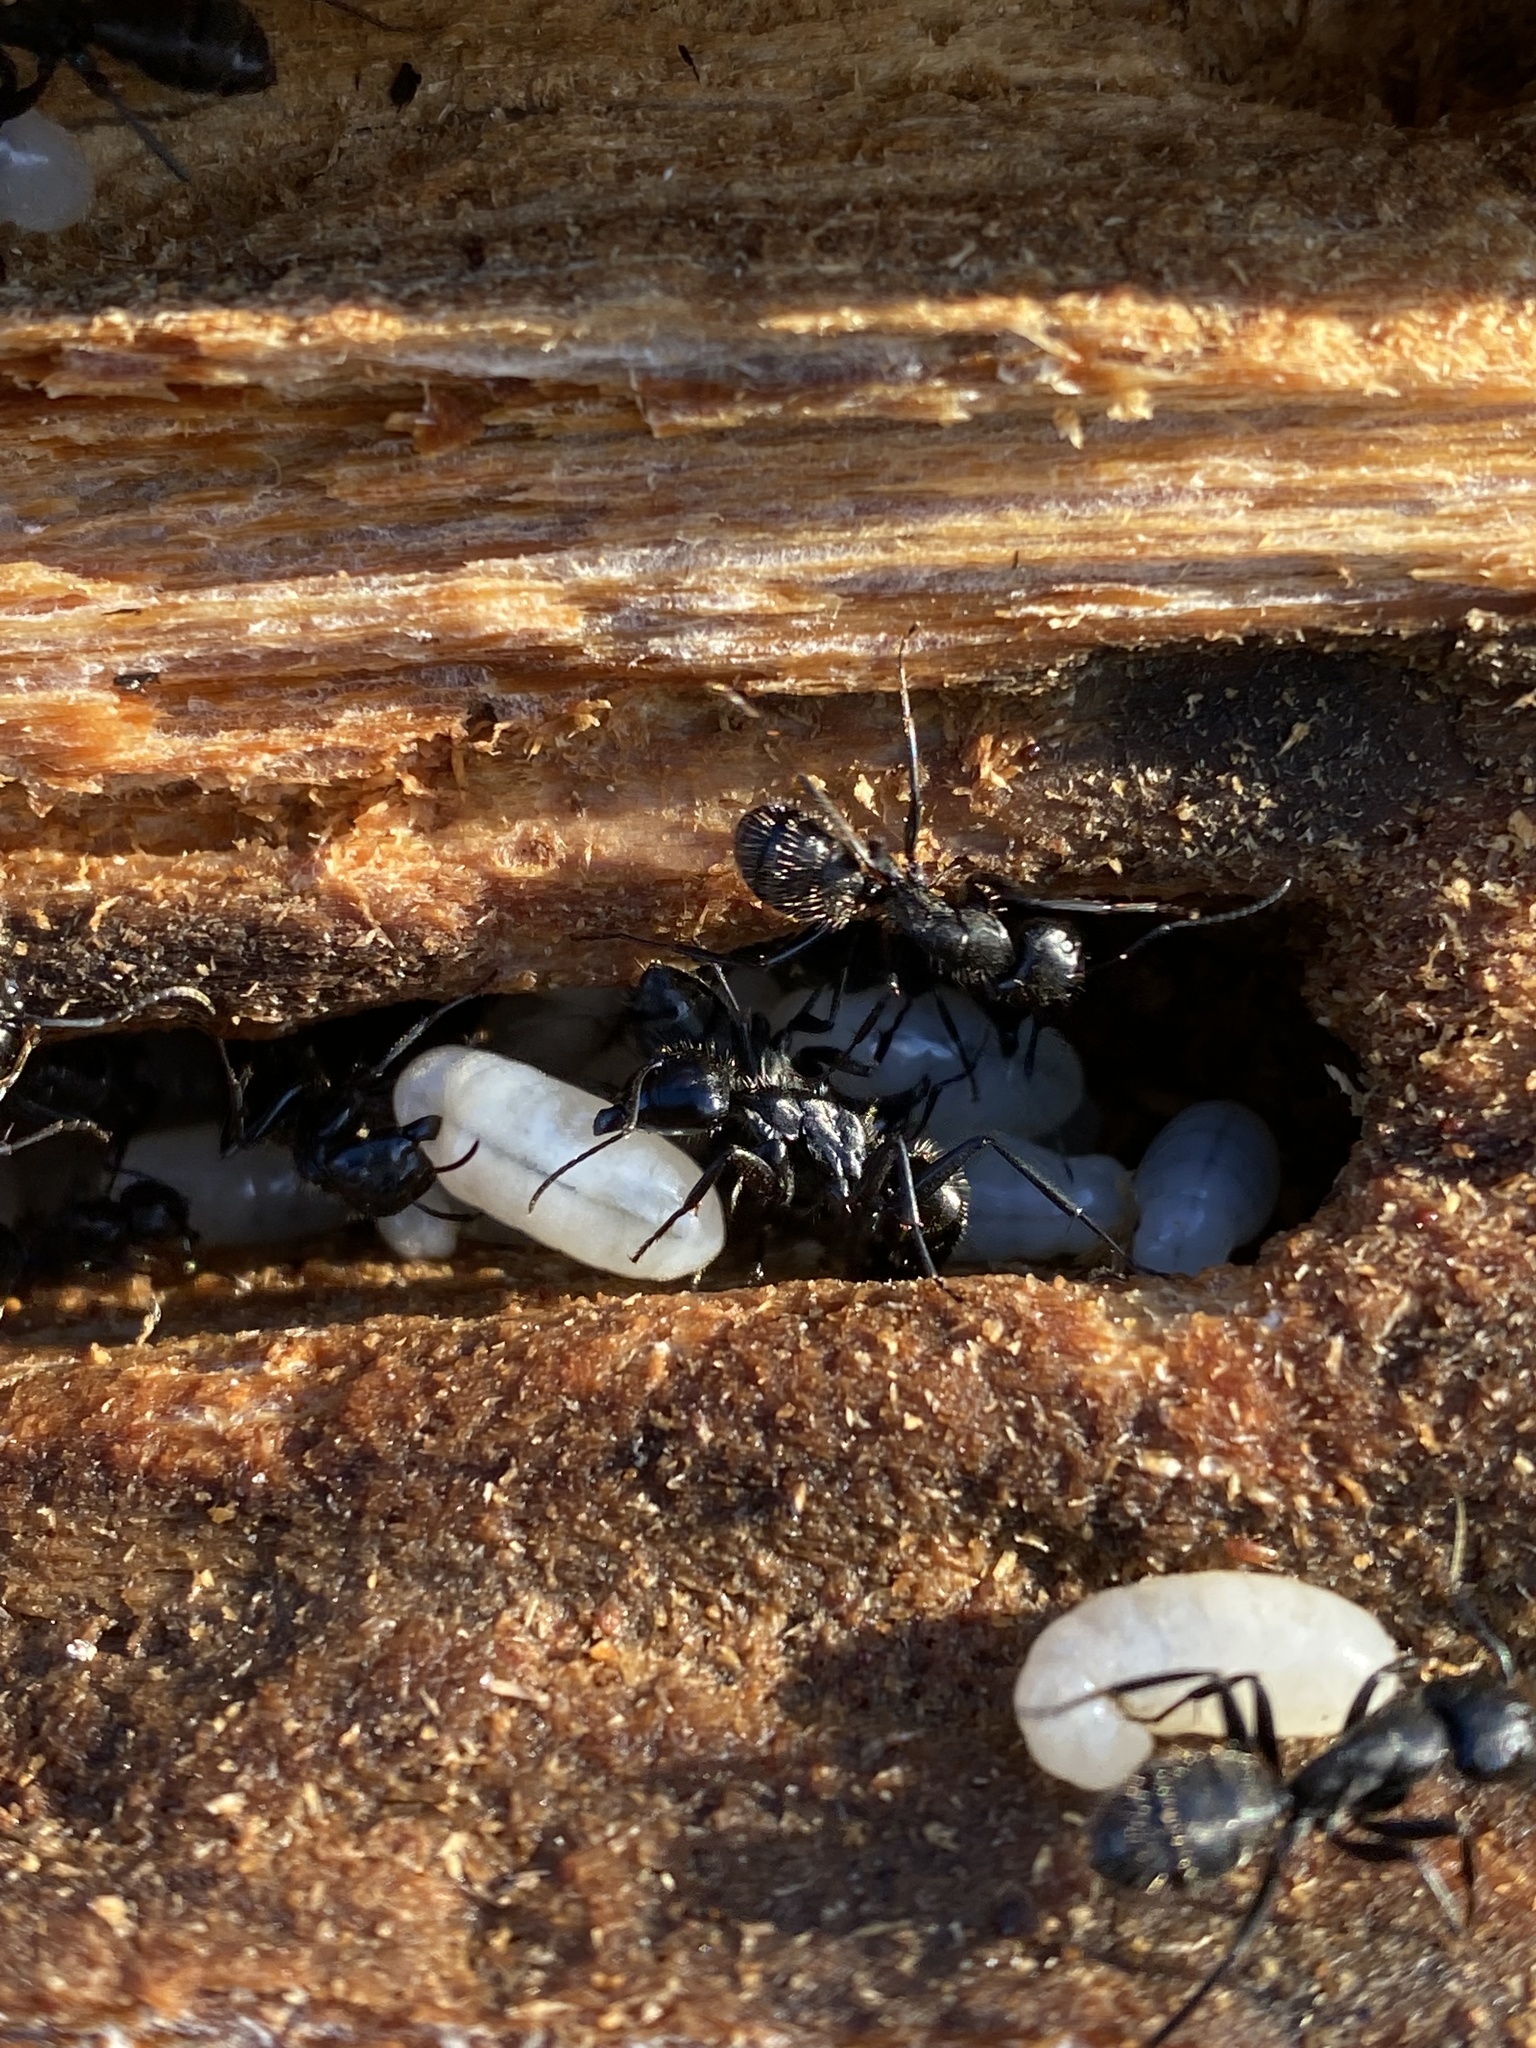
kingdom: Animalia
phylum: Arthropoda
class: Insecta
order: Hymenoptera
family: Formicidae
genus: Camponotus
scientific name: Camponotus vagus
